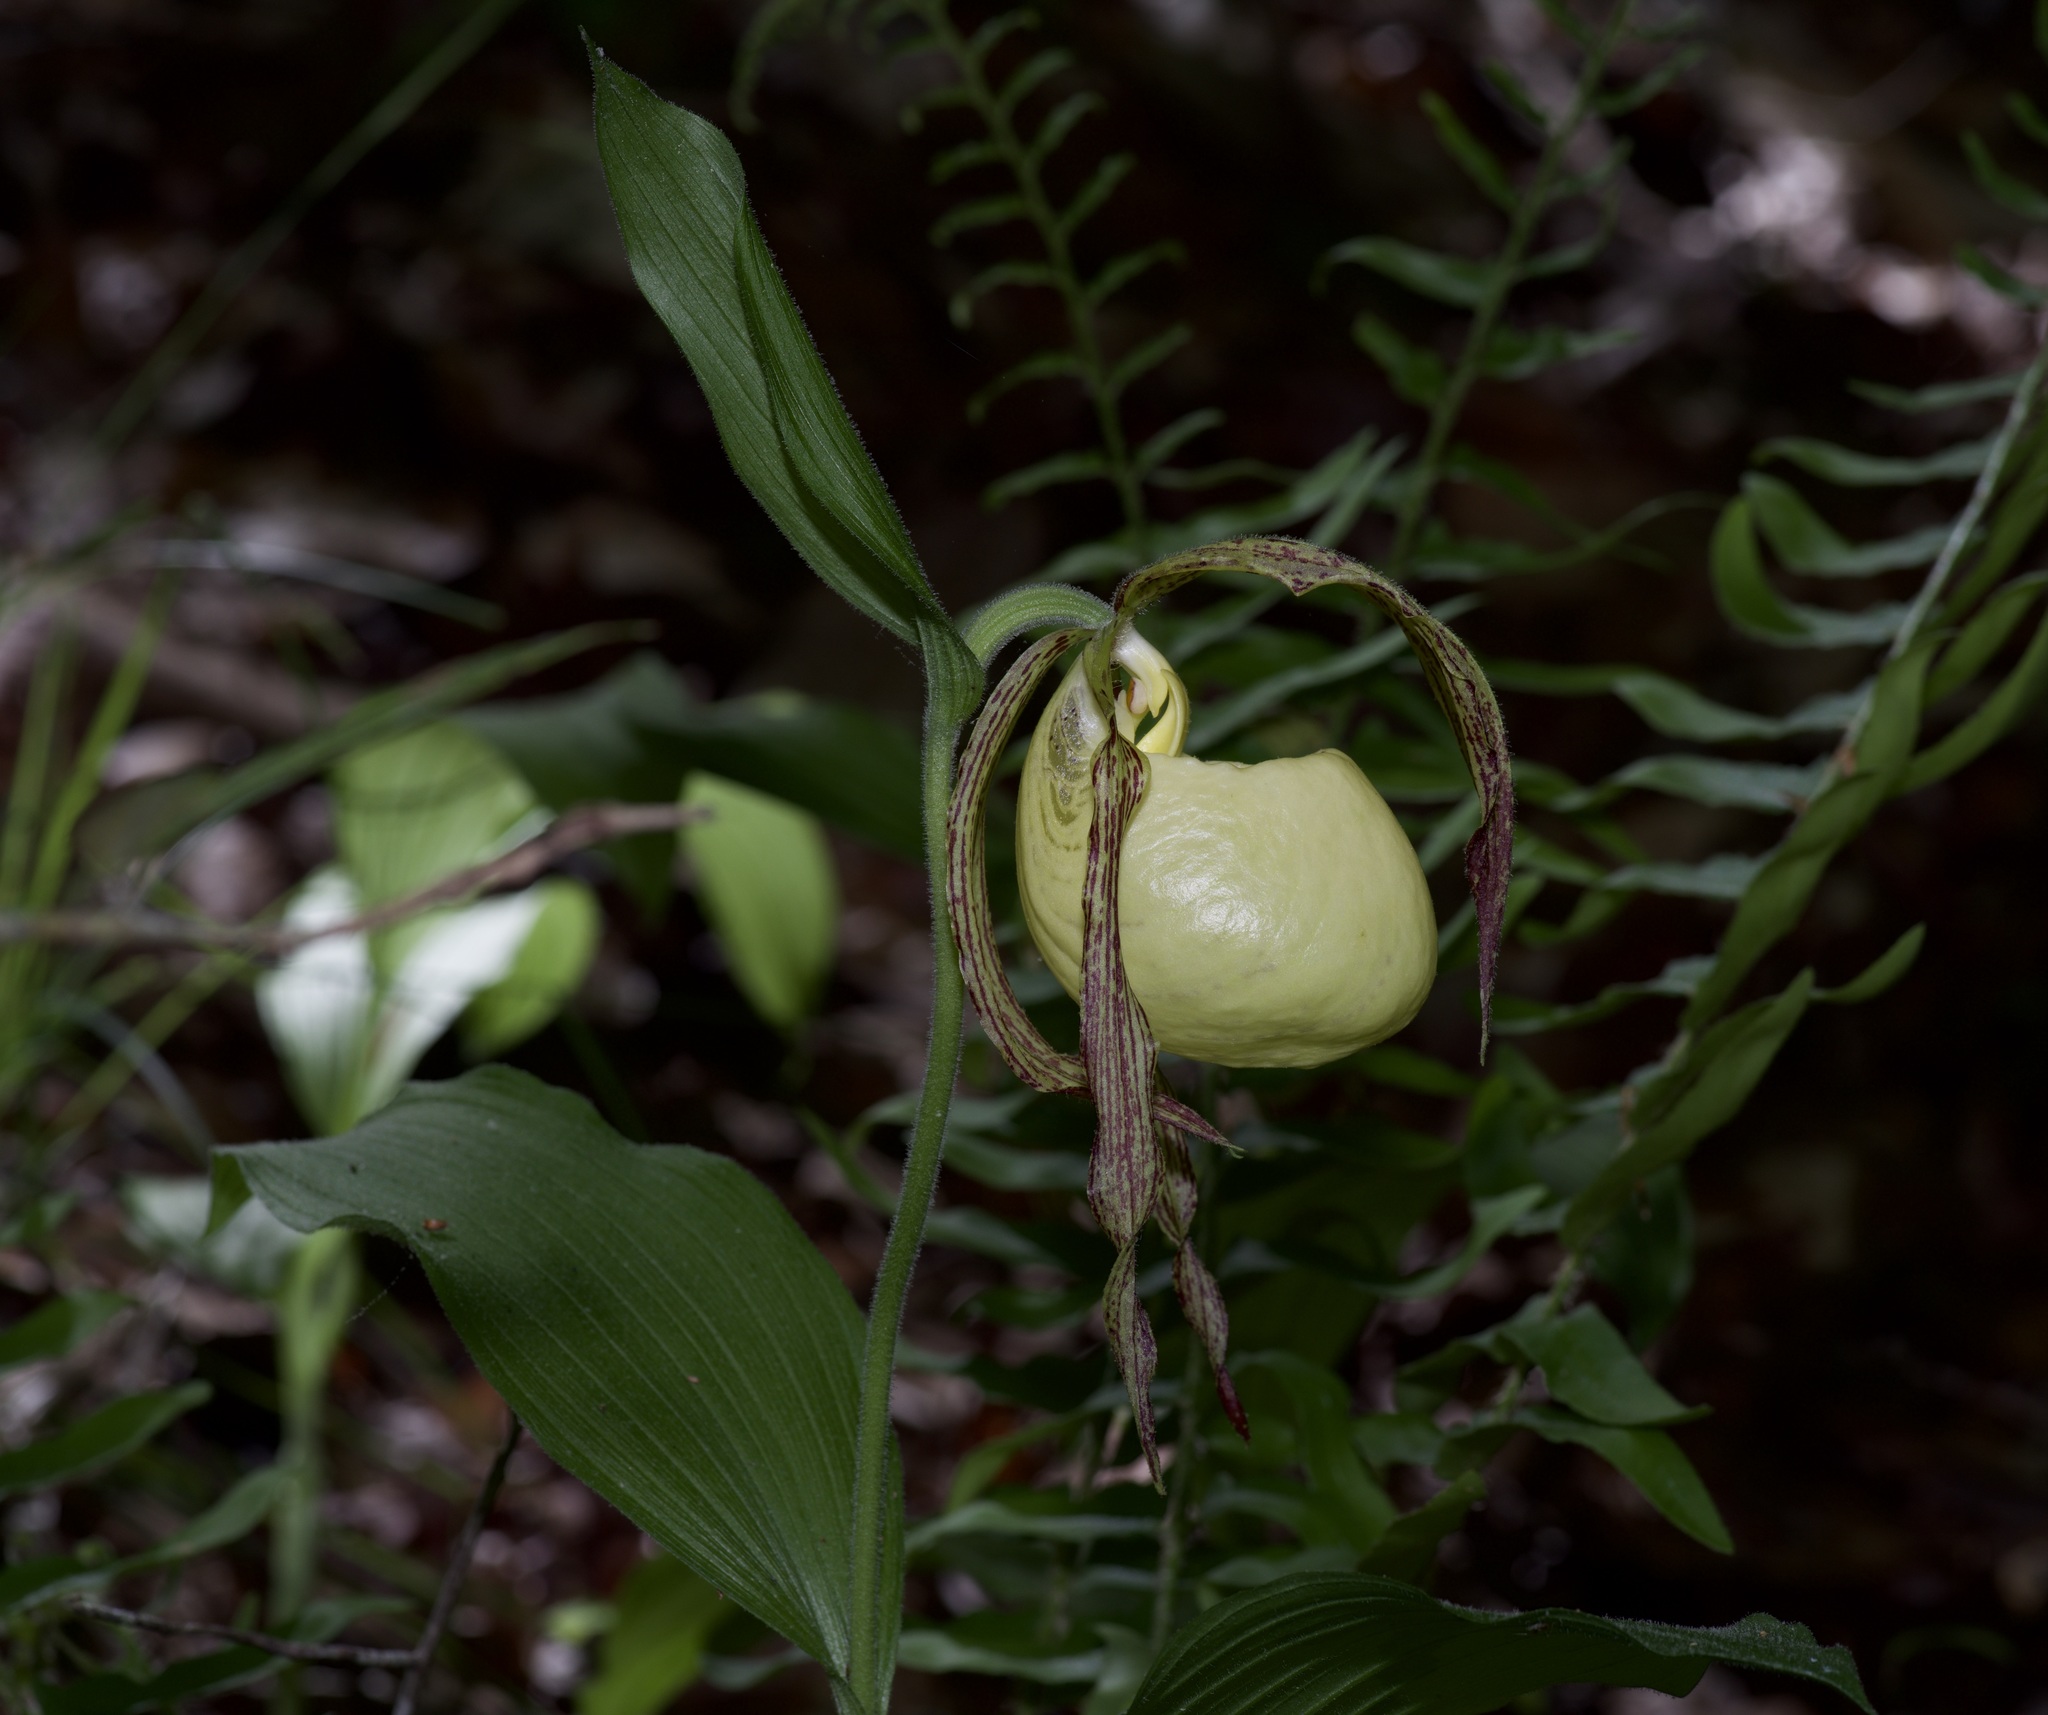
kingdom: Plantae
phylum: Tracheophyta
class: Liliopsida
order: Asparagales
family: Orchidaceae
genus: Cypripedium
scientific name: Cypripedium kentuckiense
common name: Kentucky lady's slipper
